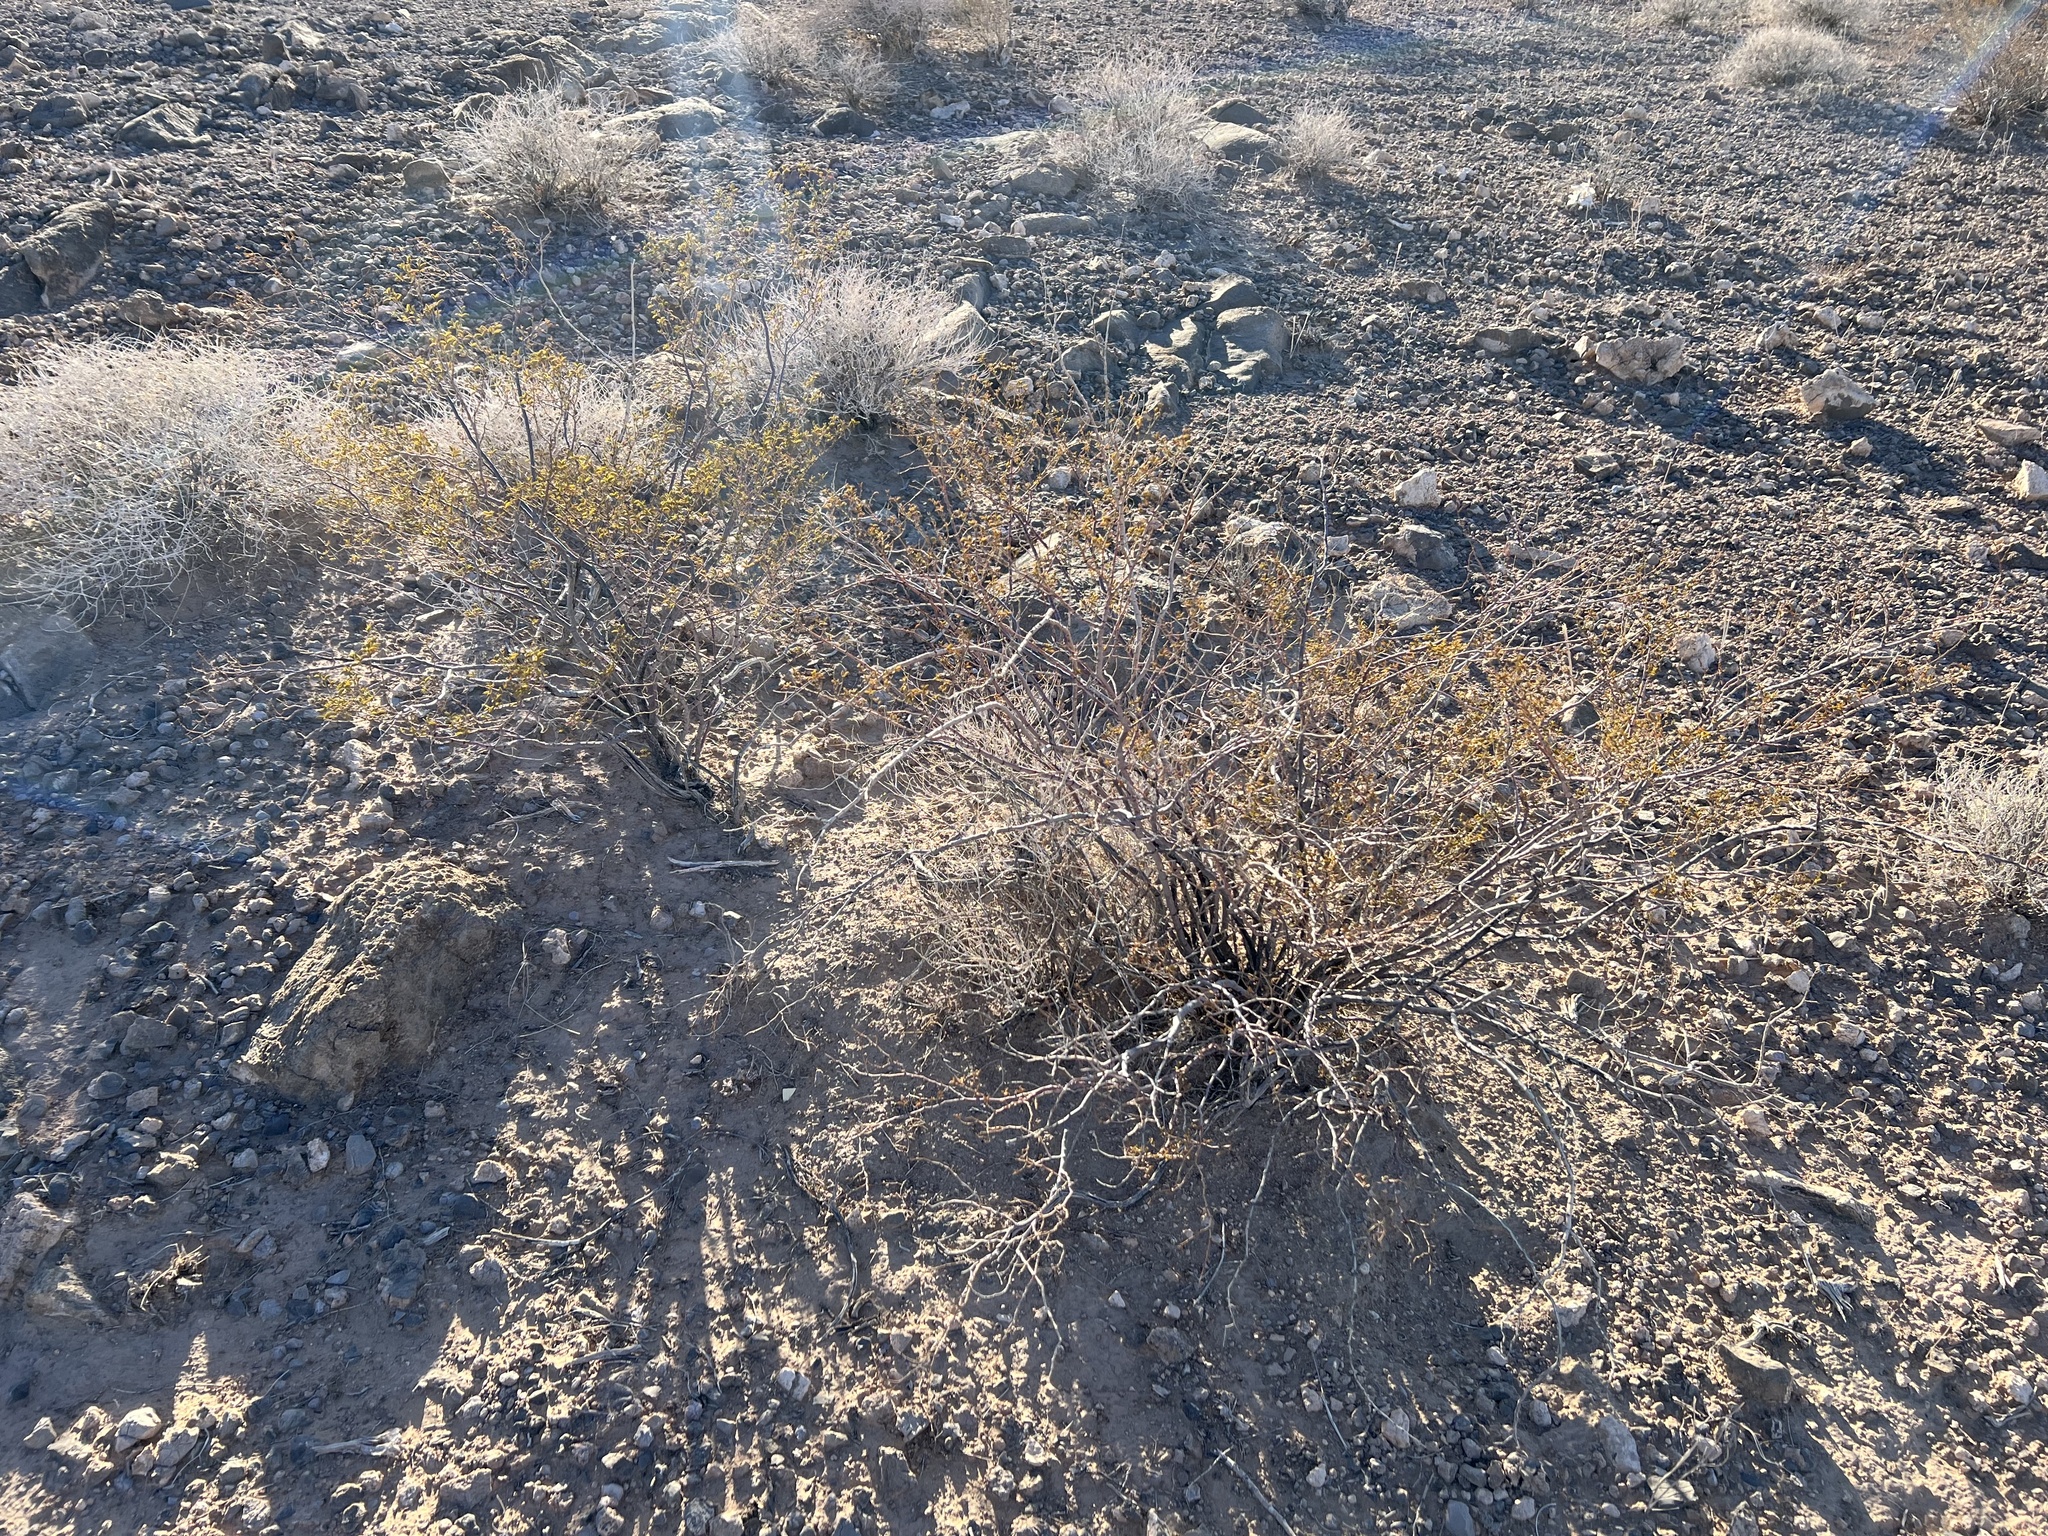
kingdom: Plantae
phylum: Tracheophyta
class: Magnoliopsida
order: Zygophyllales
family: Zygophyllaceae
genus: Larrea
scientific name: Larrea tridentata
